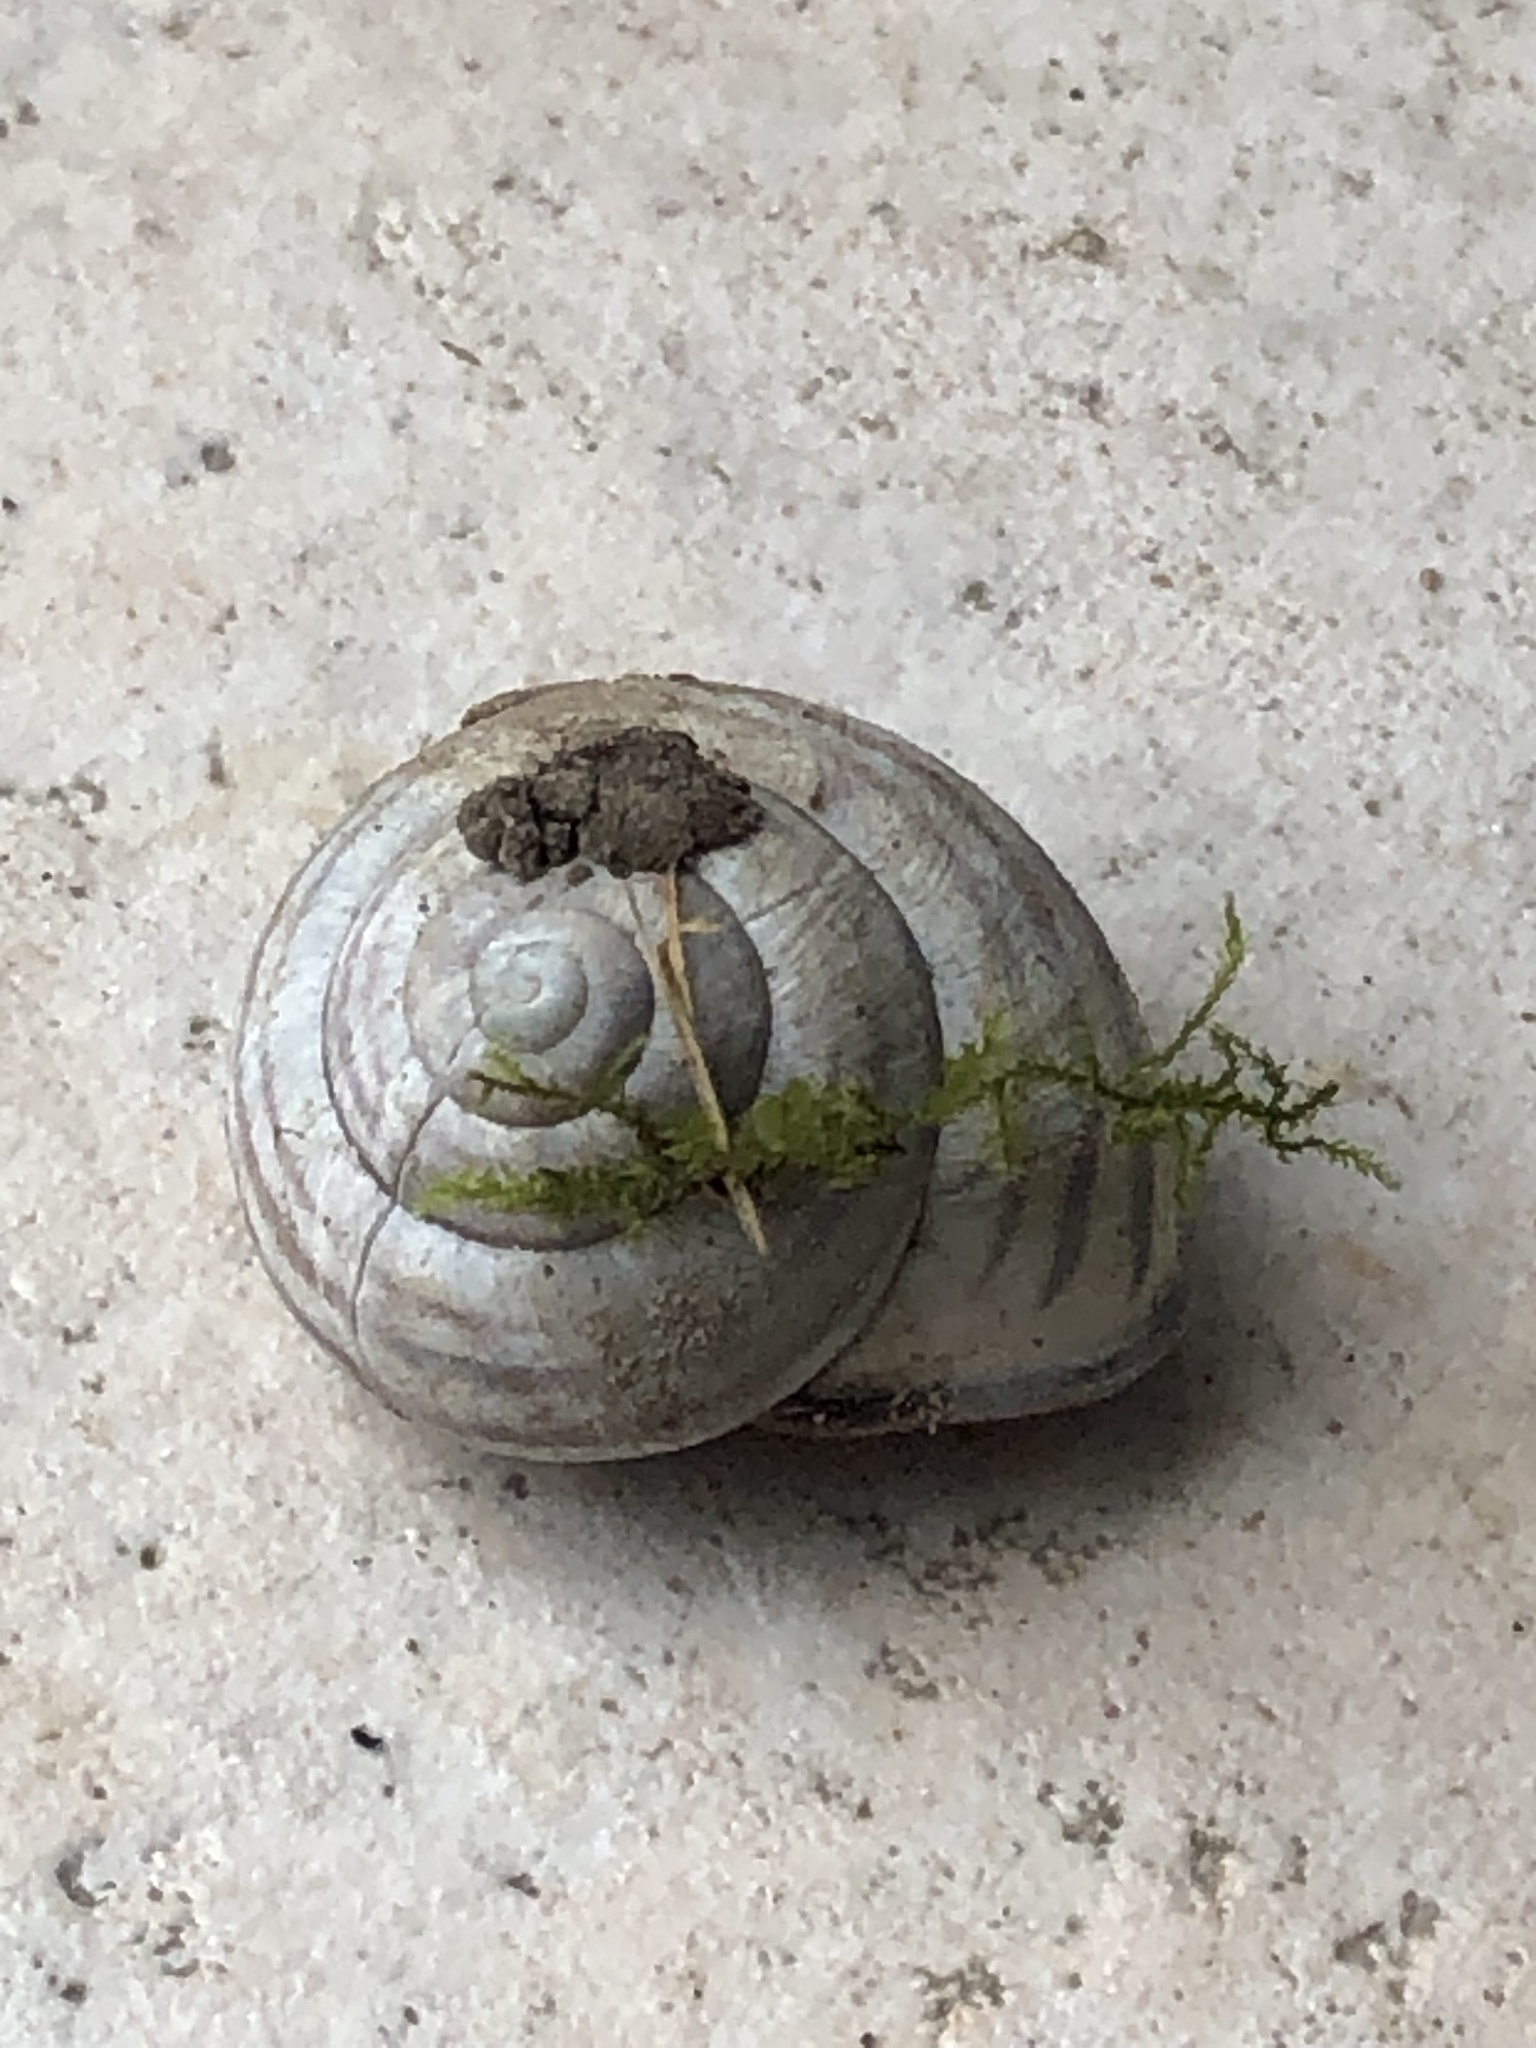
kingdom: Animalia
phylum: Mollusca
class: Gastropoda
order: Stylommatophora
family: Helicidae
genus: Cepaea
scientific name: Cepaea nemoralis
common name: Grovesnail
